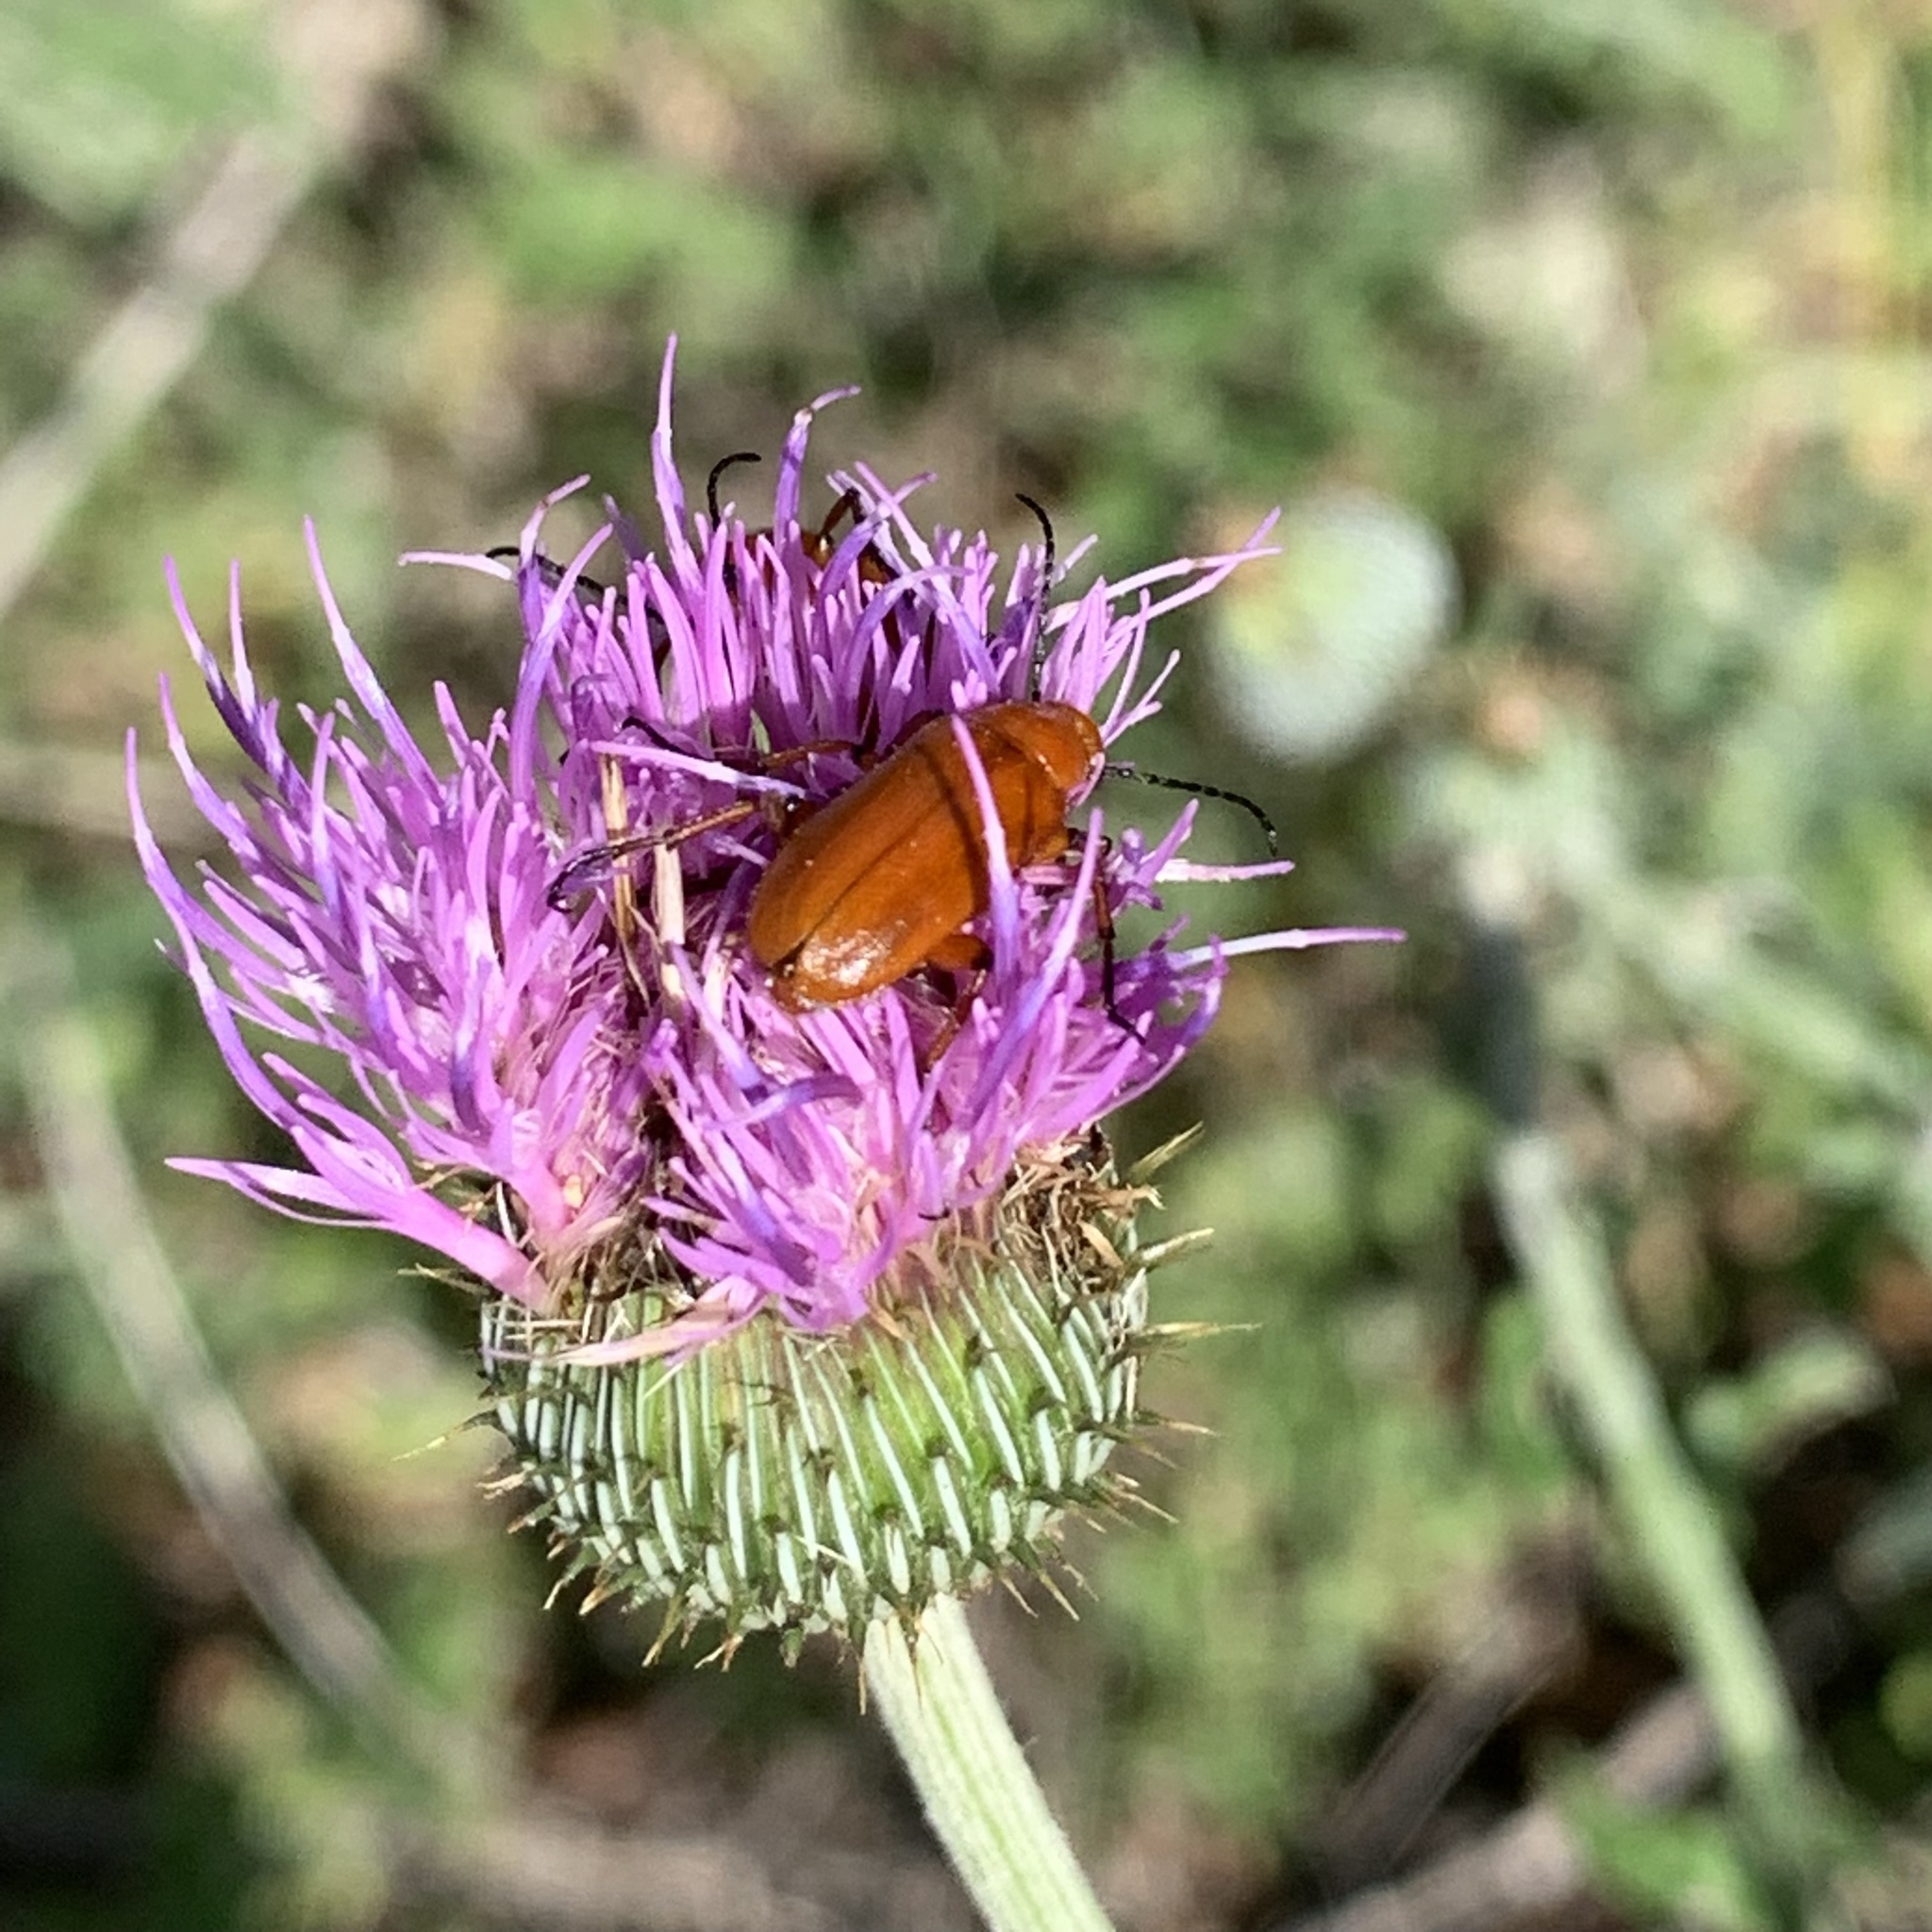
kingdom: Plantae
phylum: Tracheophyta
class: Magnoliopsida
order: Asterales
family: Asteraceae
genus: Cirsium
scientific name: Cirsium texanum
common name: Texas purple thistle
